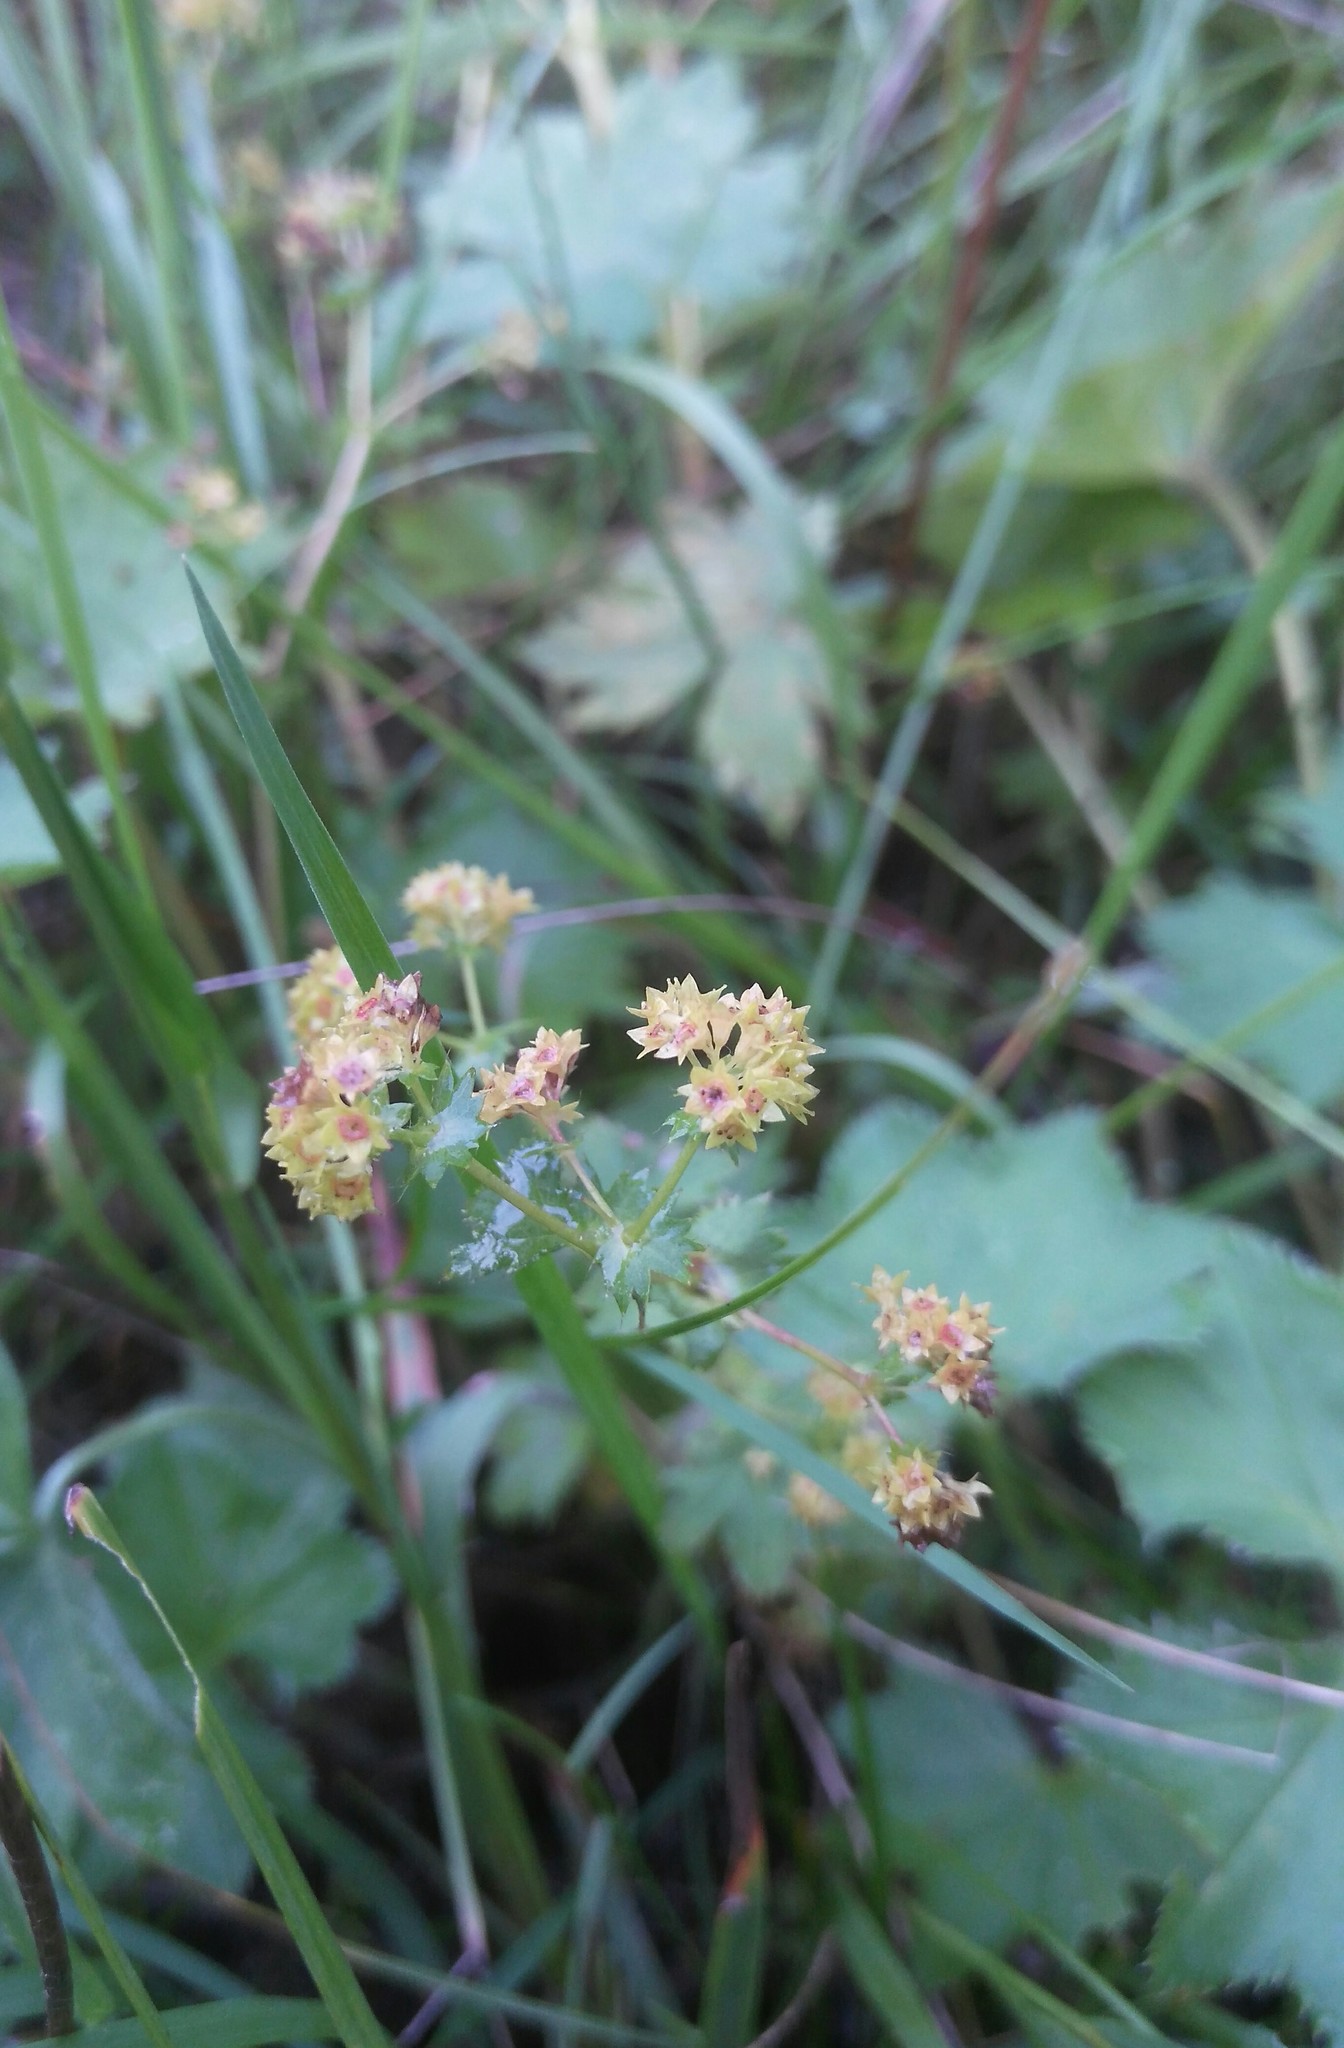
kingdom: Plantae
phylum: Tracheophyta
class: Magnoliopsida
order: Rosales
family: Rosaceae
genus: Alchemilla
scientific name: Alchemilla
